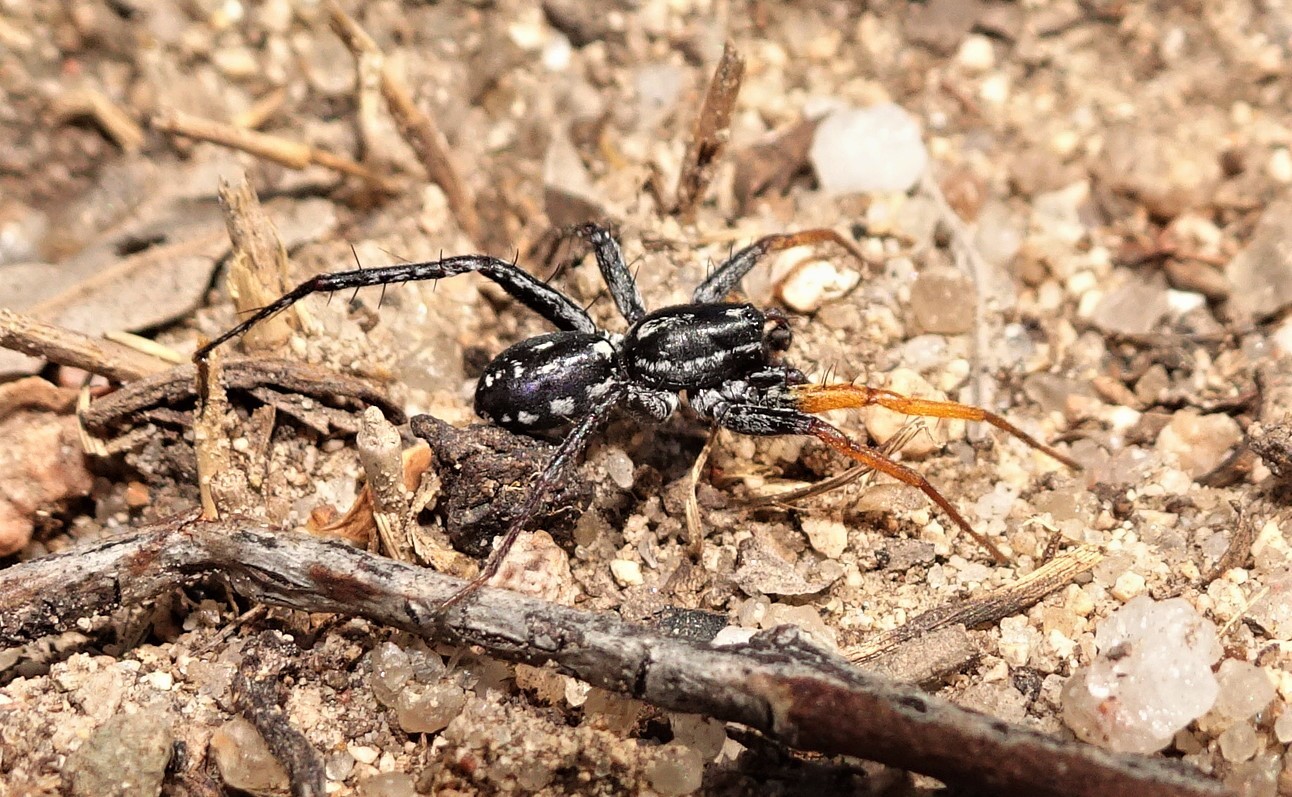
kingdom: Animalia
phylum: Arthropoda
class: Arachnida
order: Araneae
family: Corinnidae
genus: Nyssus
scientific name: Nyssus coloripes
